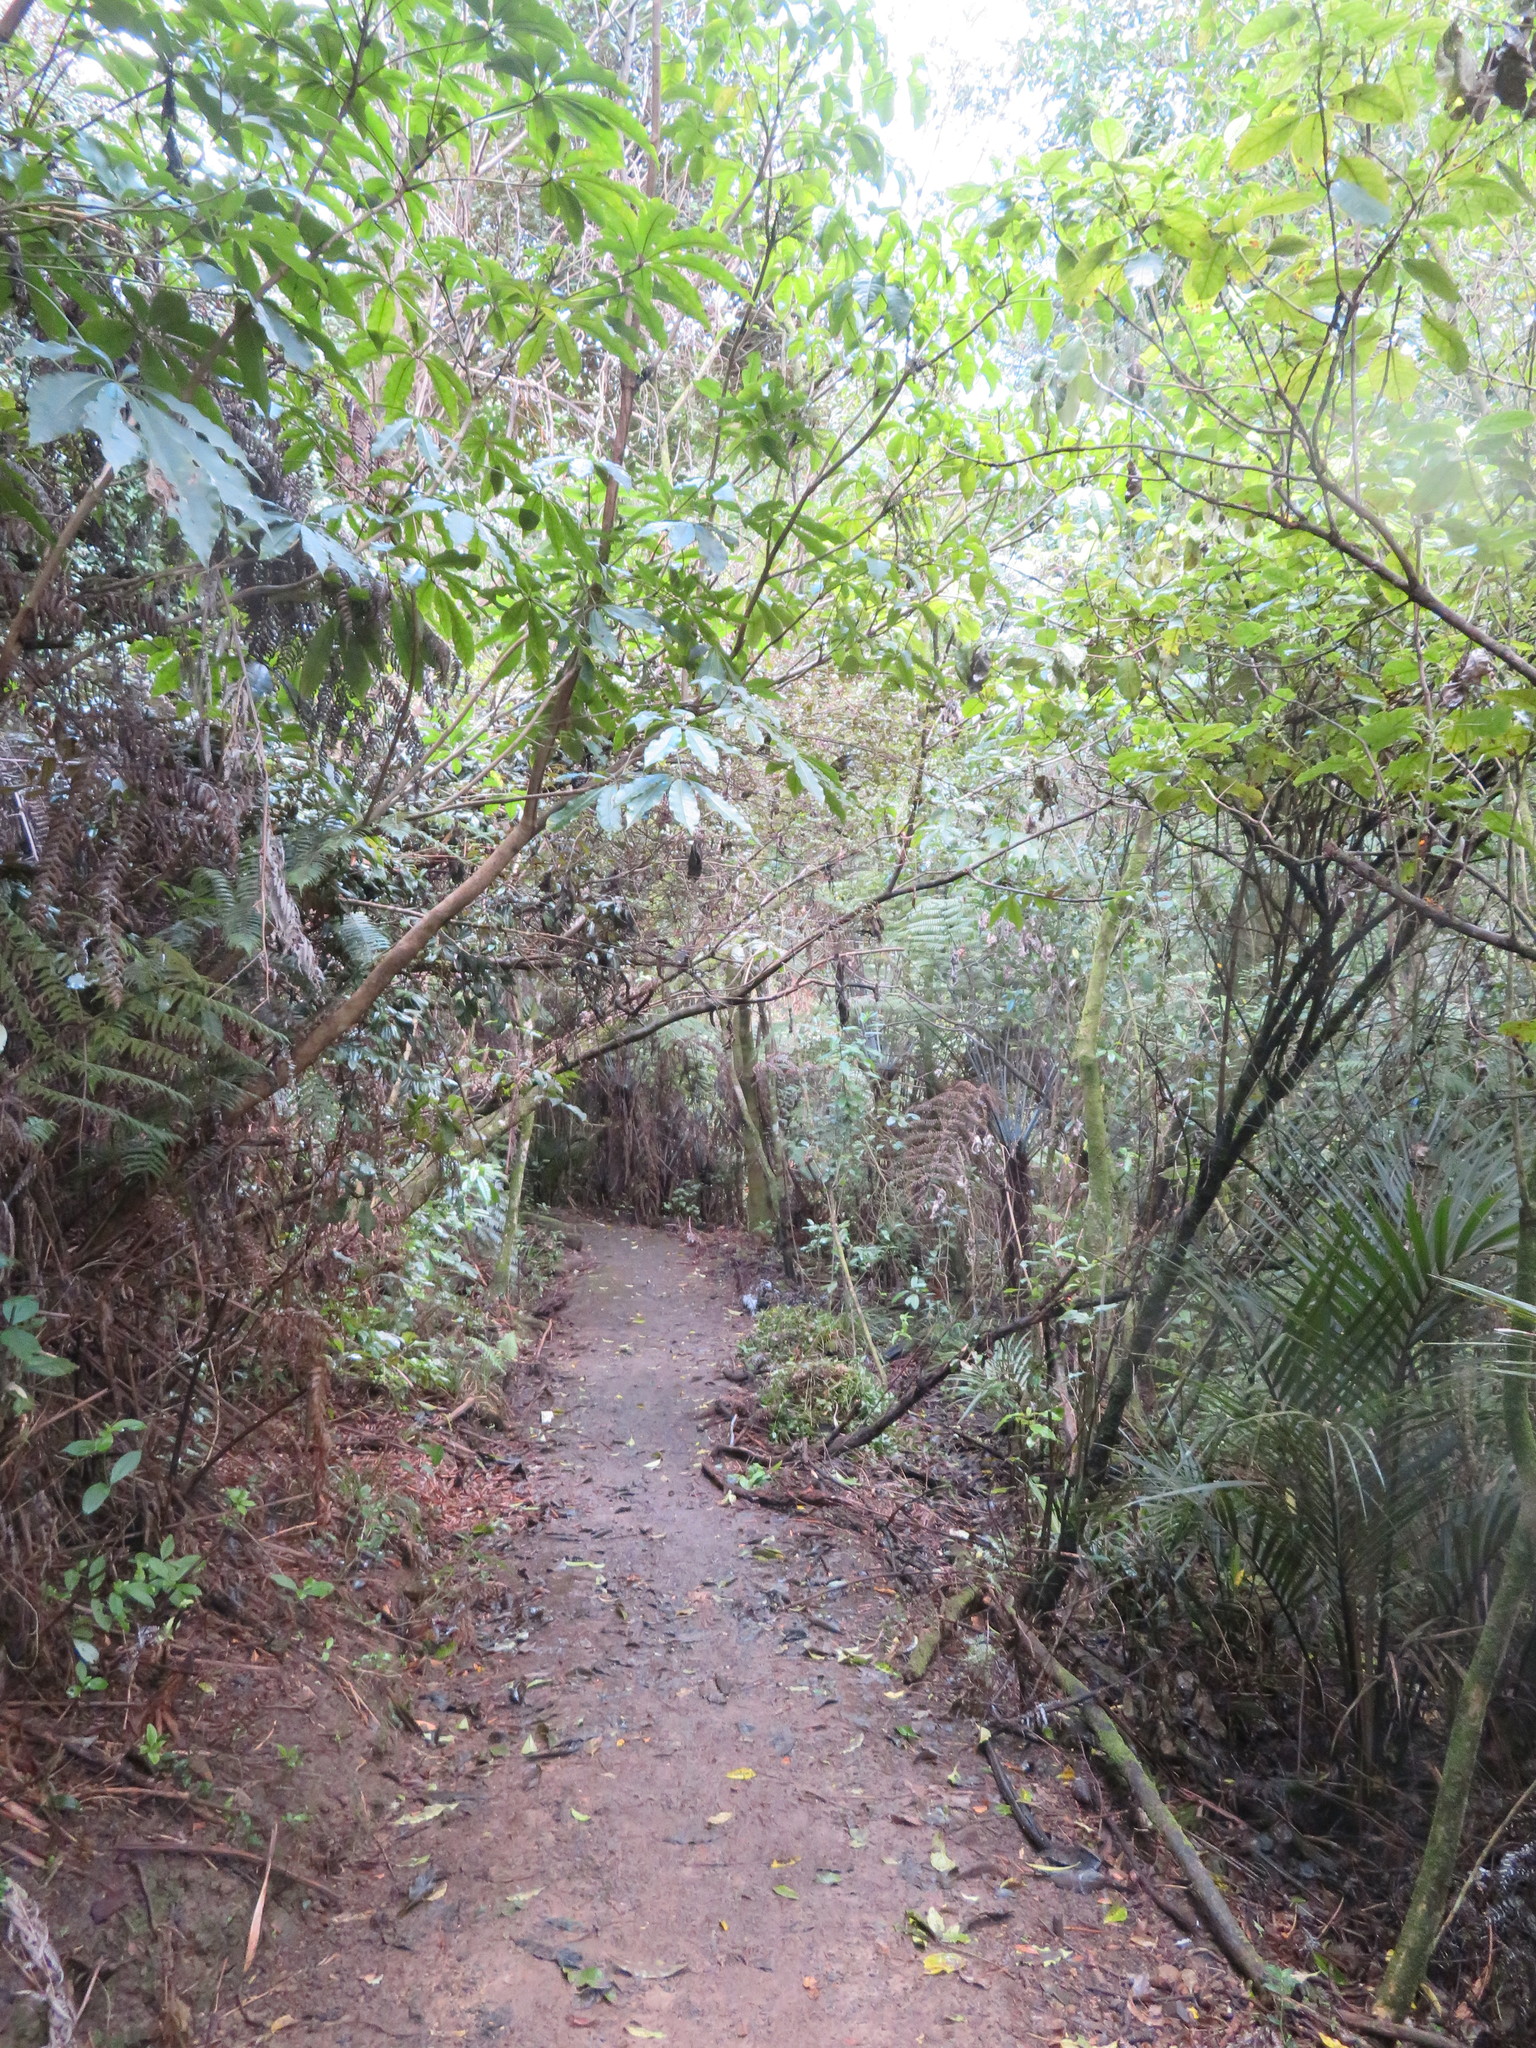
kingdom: Plantae
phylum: Tracheophyta
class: Magnoliopsida
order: Apiales
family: Araliaceae
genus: Schefflera
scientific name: Schefflera digitata
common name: Pate
